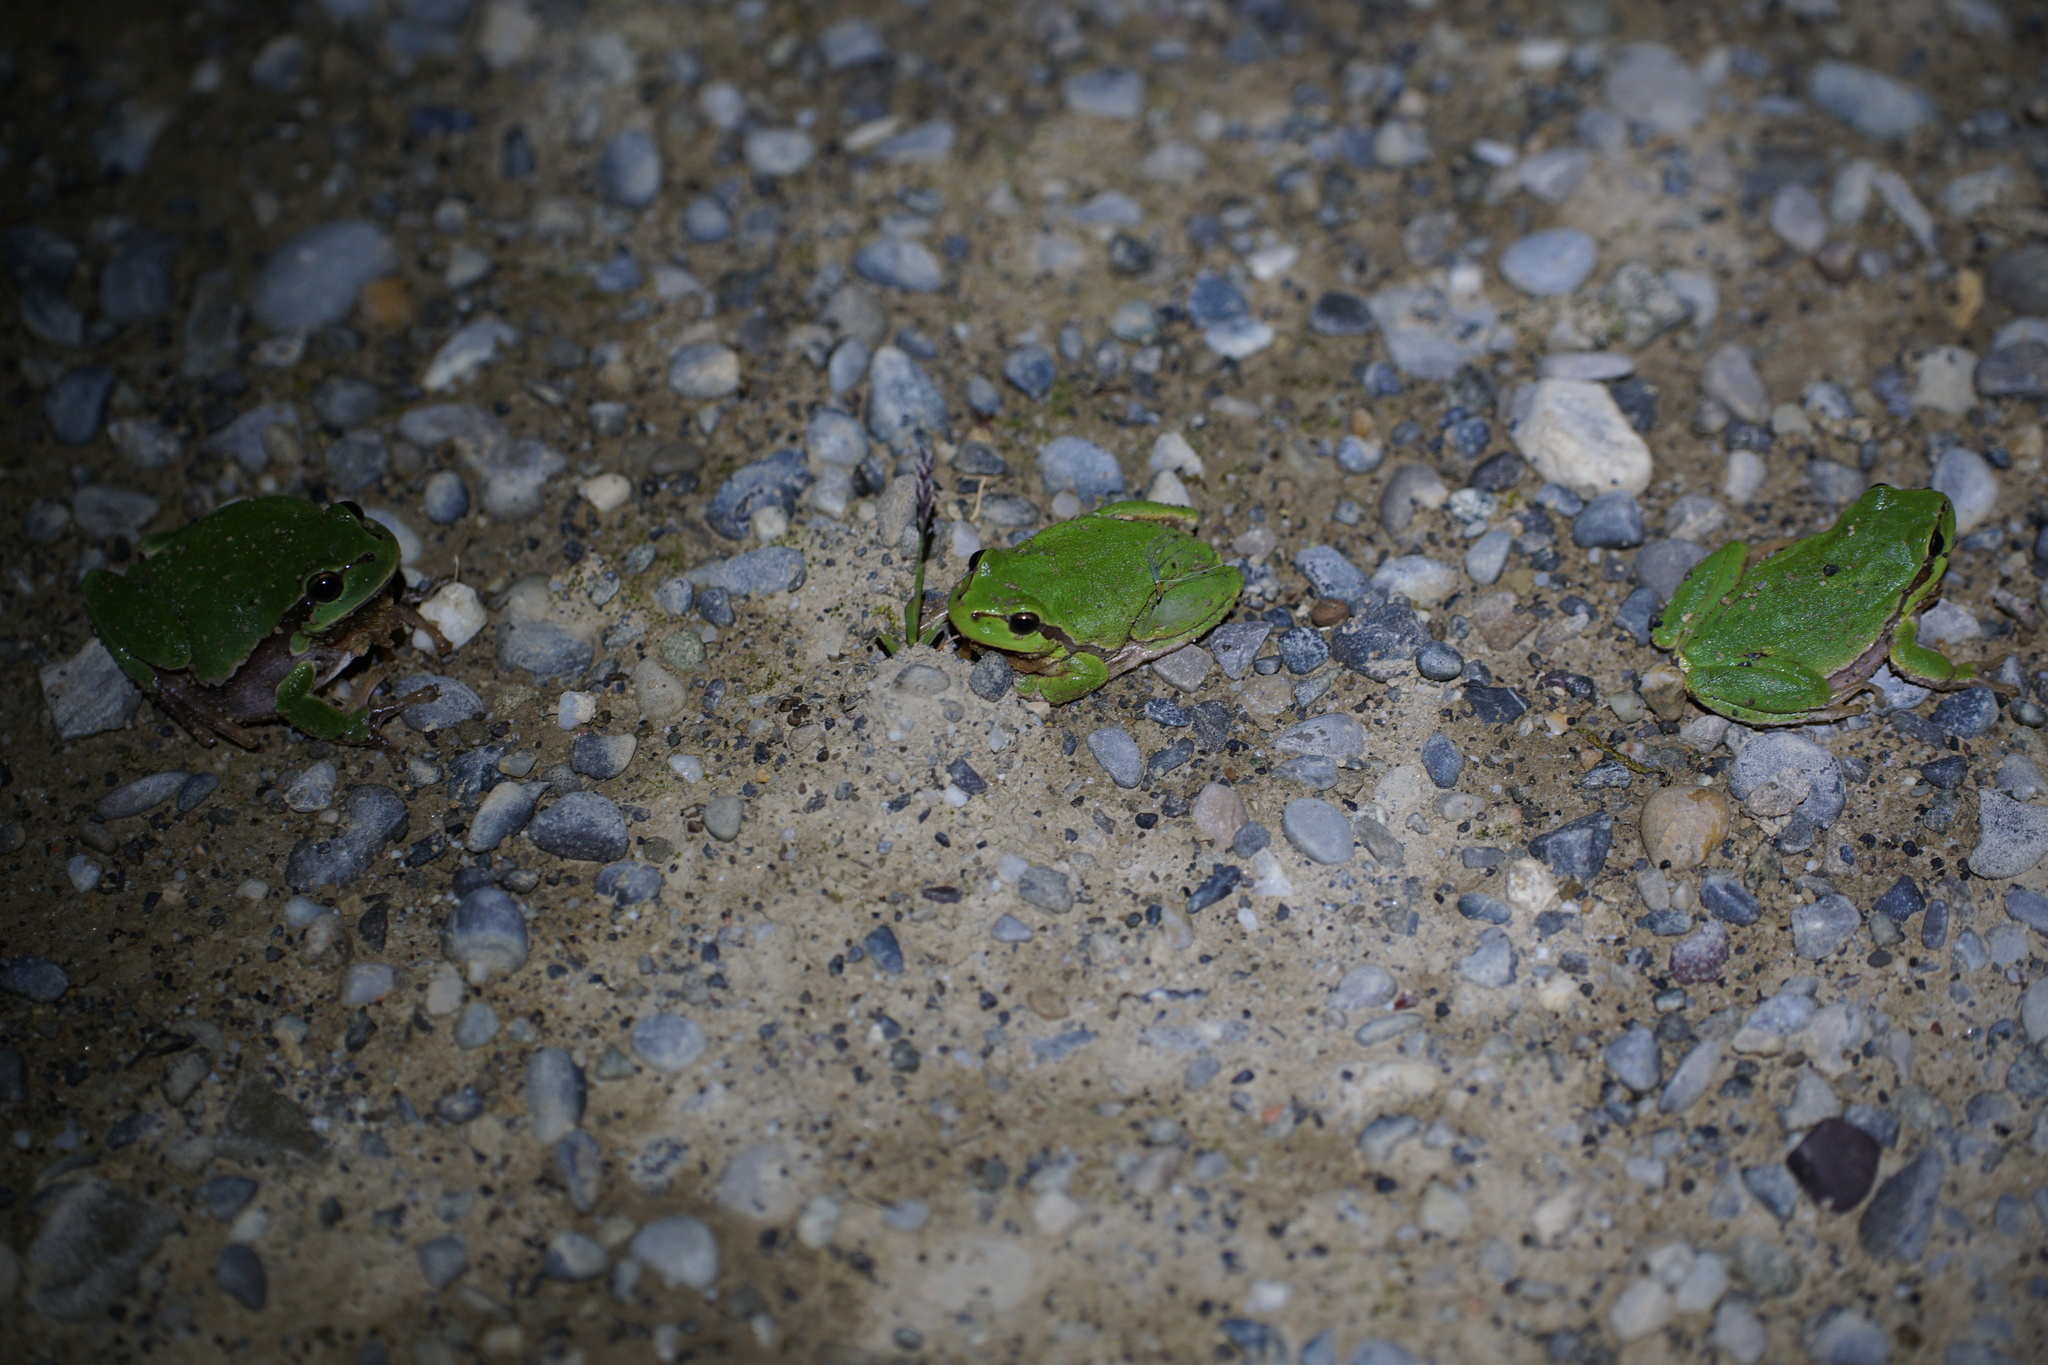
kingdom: Animalia
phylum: Chordata
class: Amphibia
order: Anura
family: Hylidae
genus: Hyla
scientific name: Hyla arborea
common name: Common tree frog
